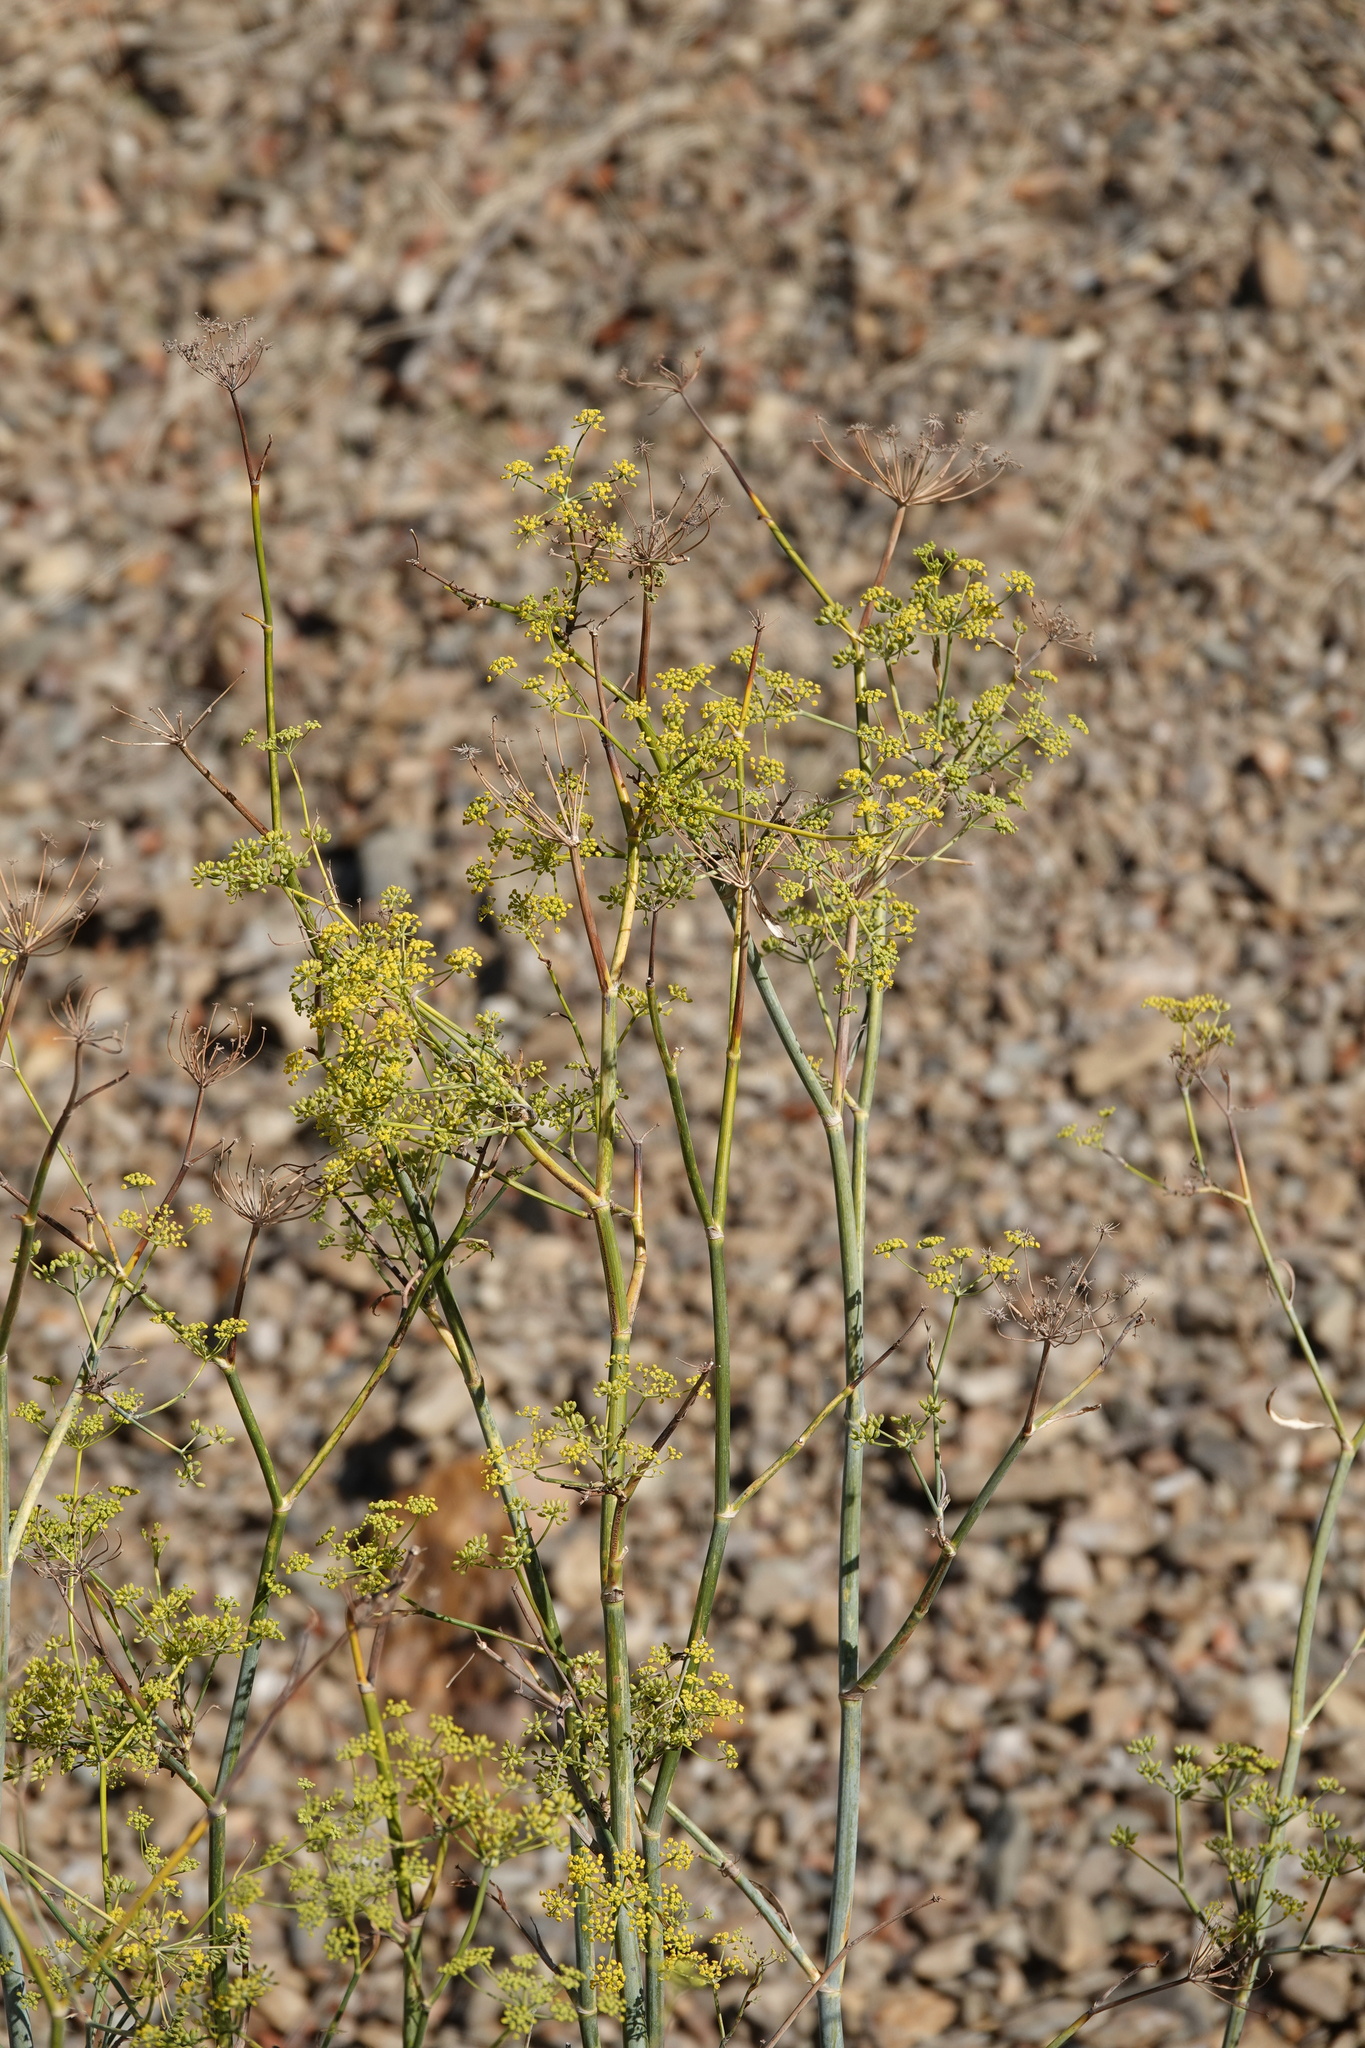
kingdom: Plantae
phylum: Tracheophyta
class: Magnoliopsida
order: Apiales
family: Apiaceae
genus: Foeniculum
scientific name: Foeniculum vulgare
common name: Fennel
